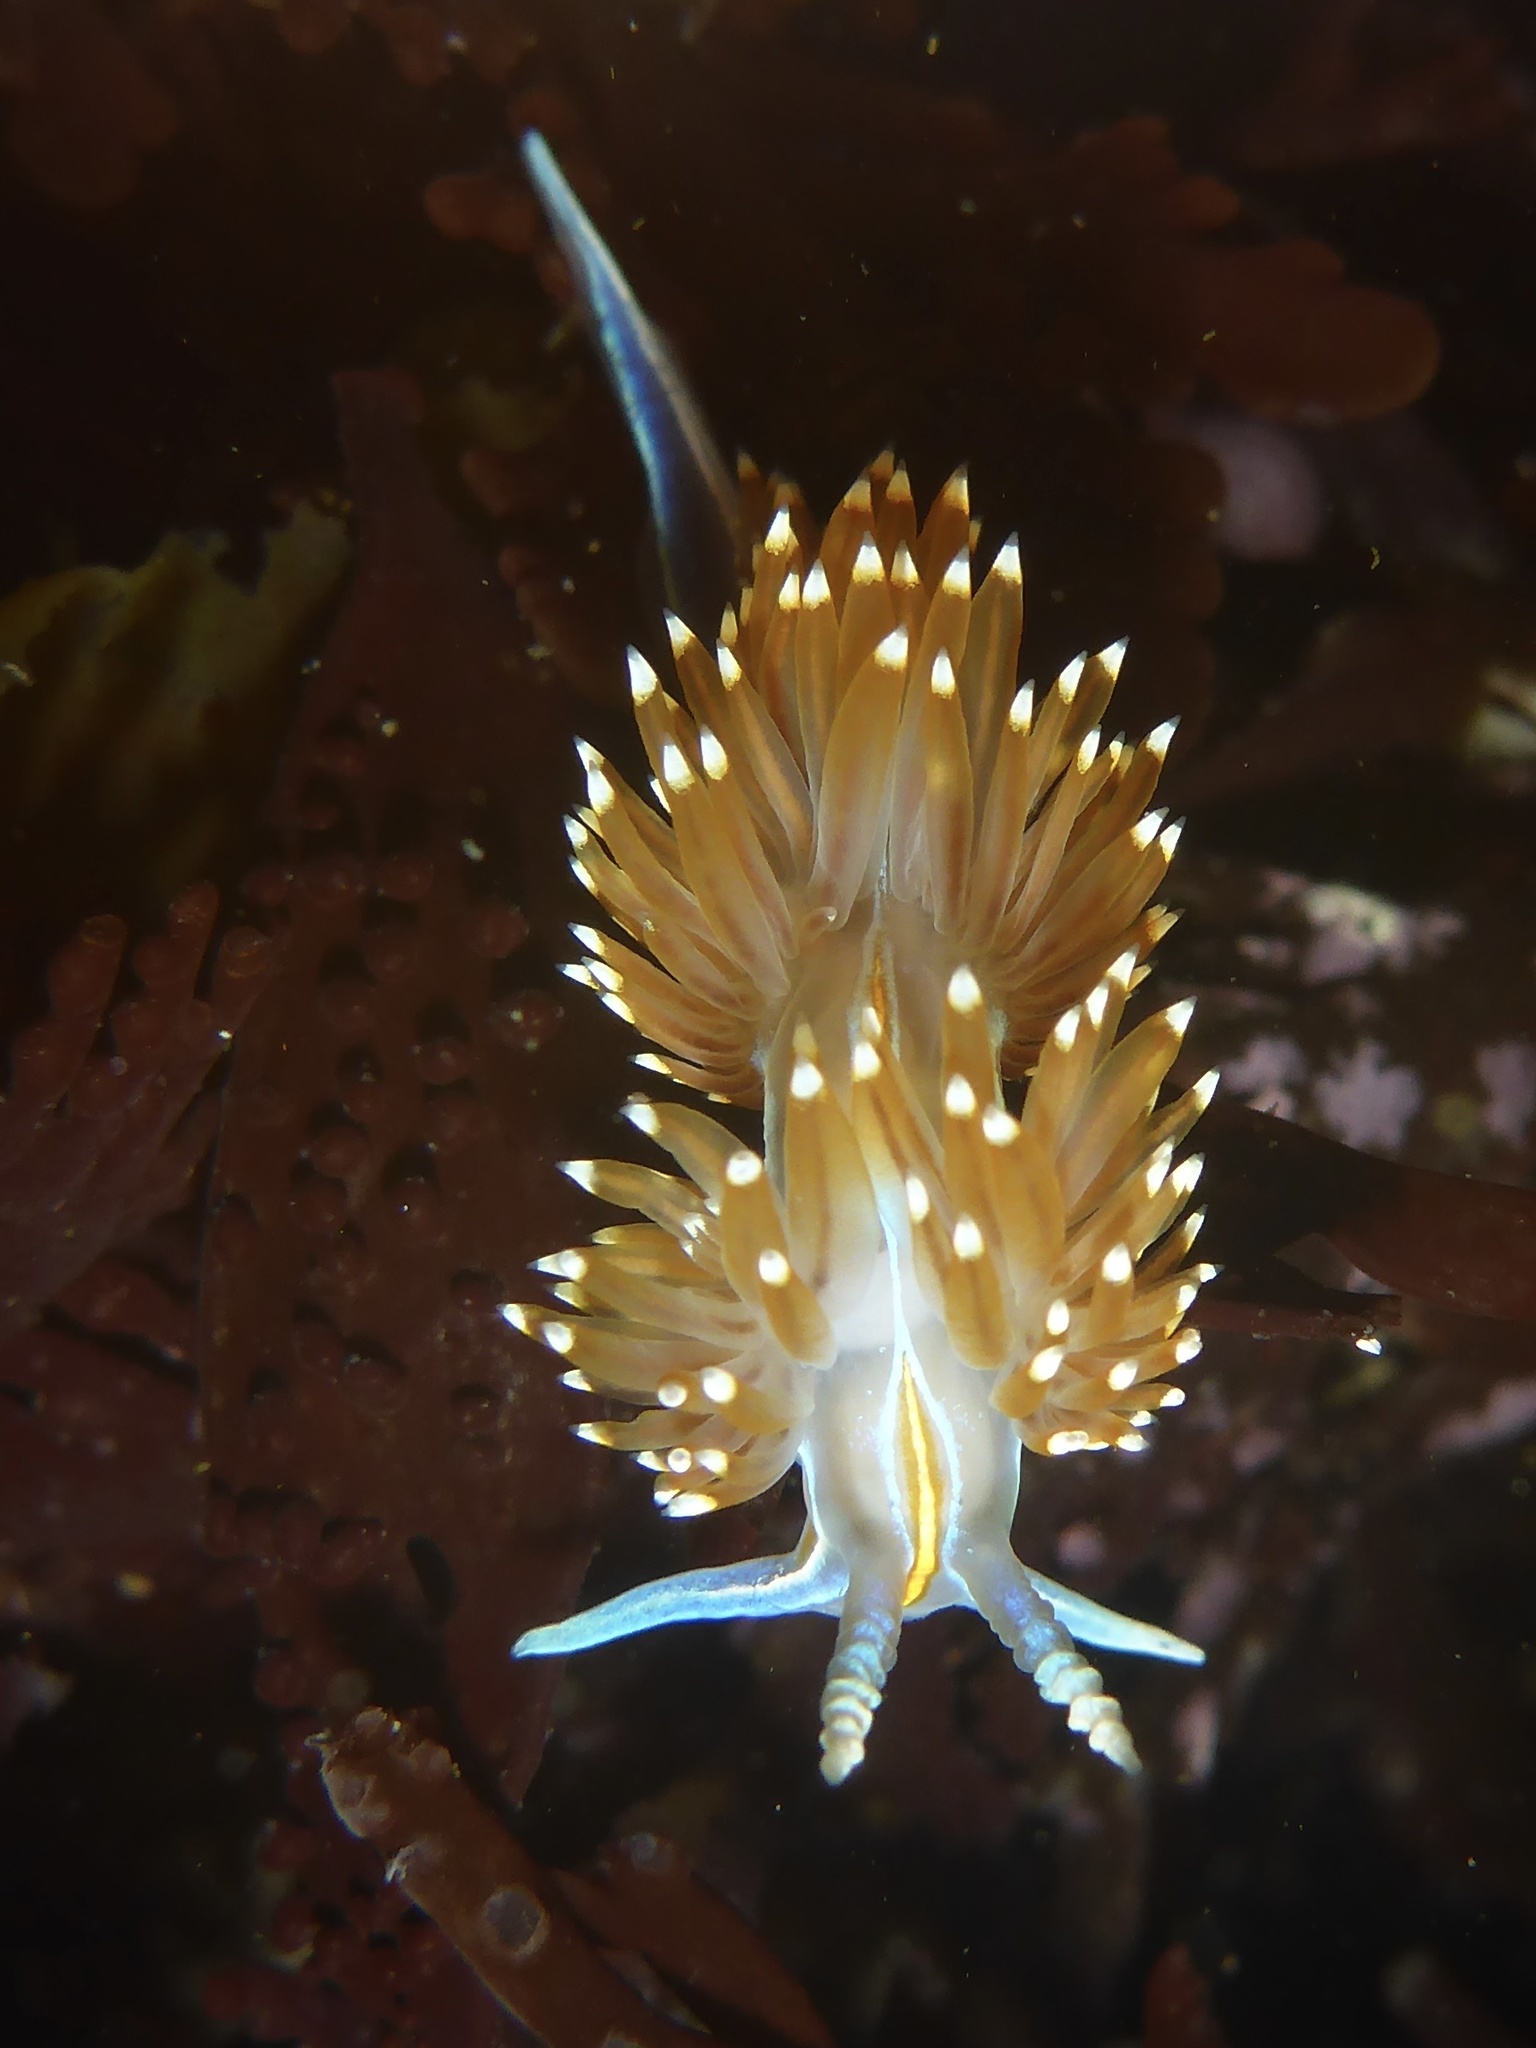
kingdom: Animalia
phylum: Mollusca
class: Gastropoda
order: Nudibranchia
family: Myrrhinidae
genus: Hermissenda
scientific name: Hermissenda opalescens
